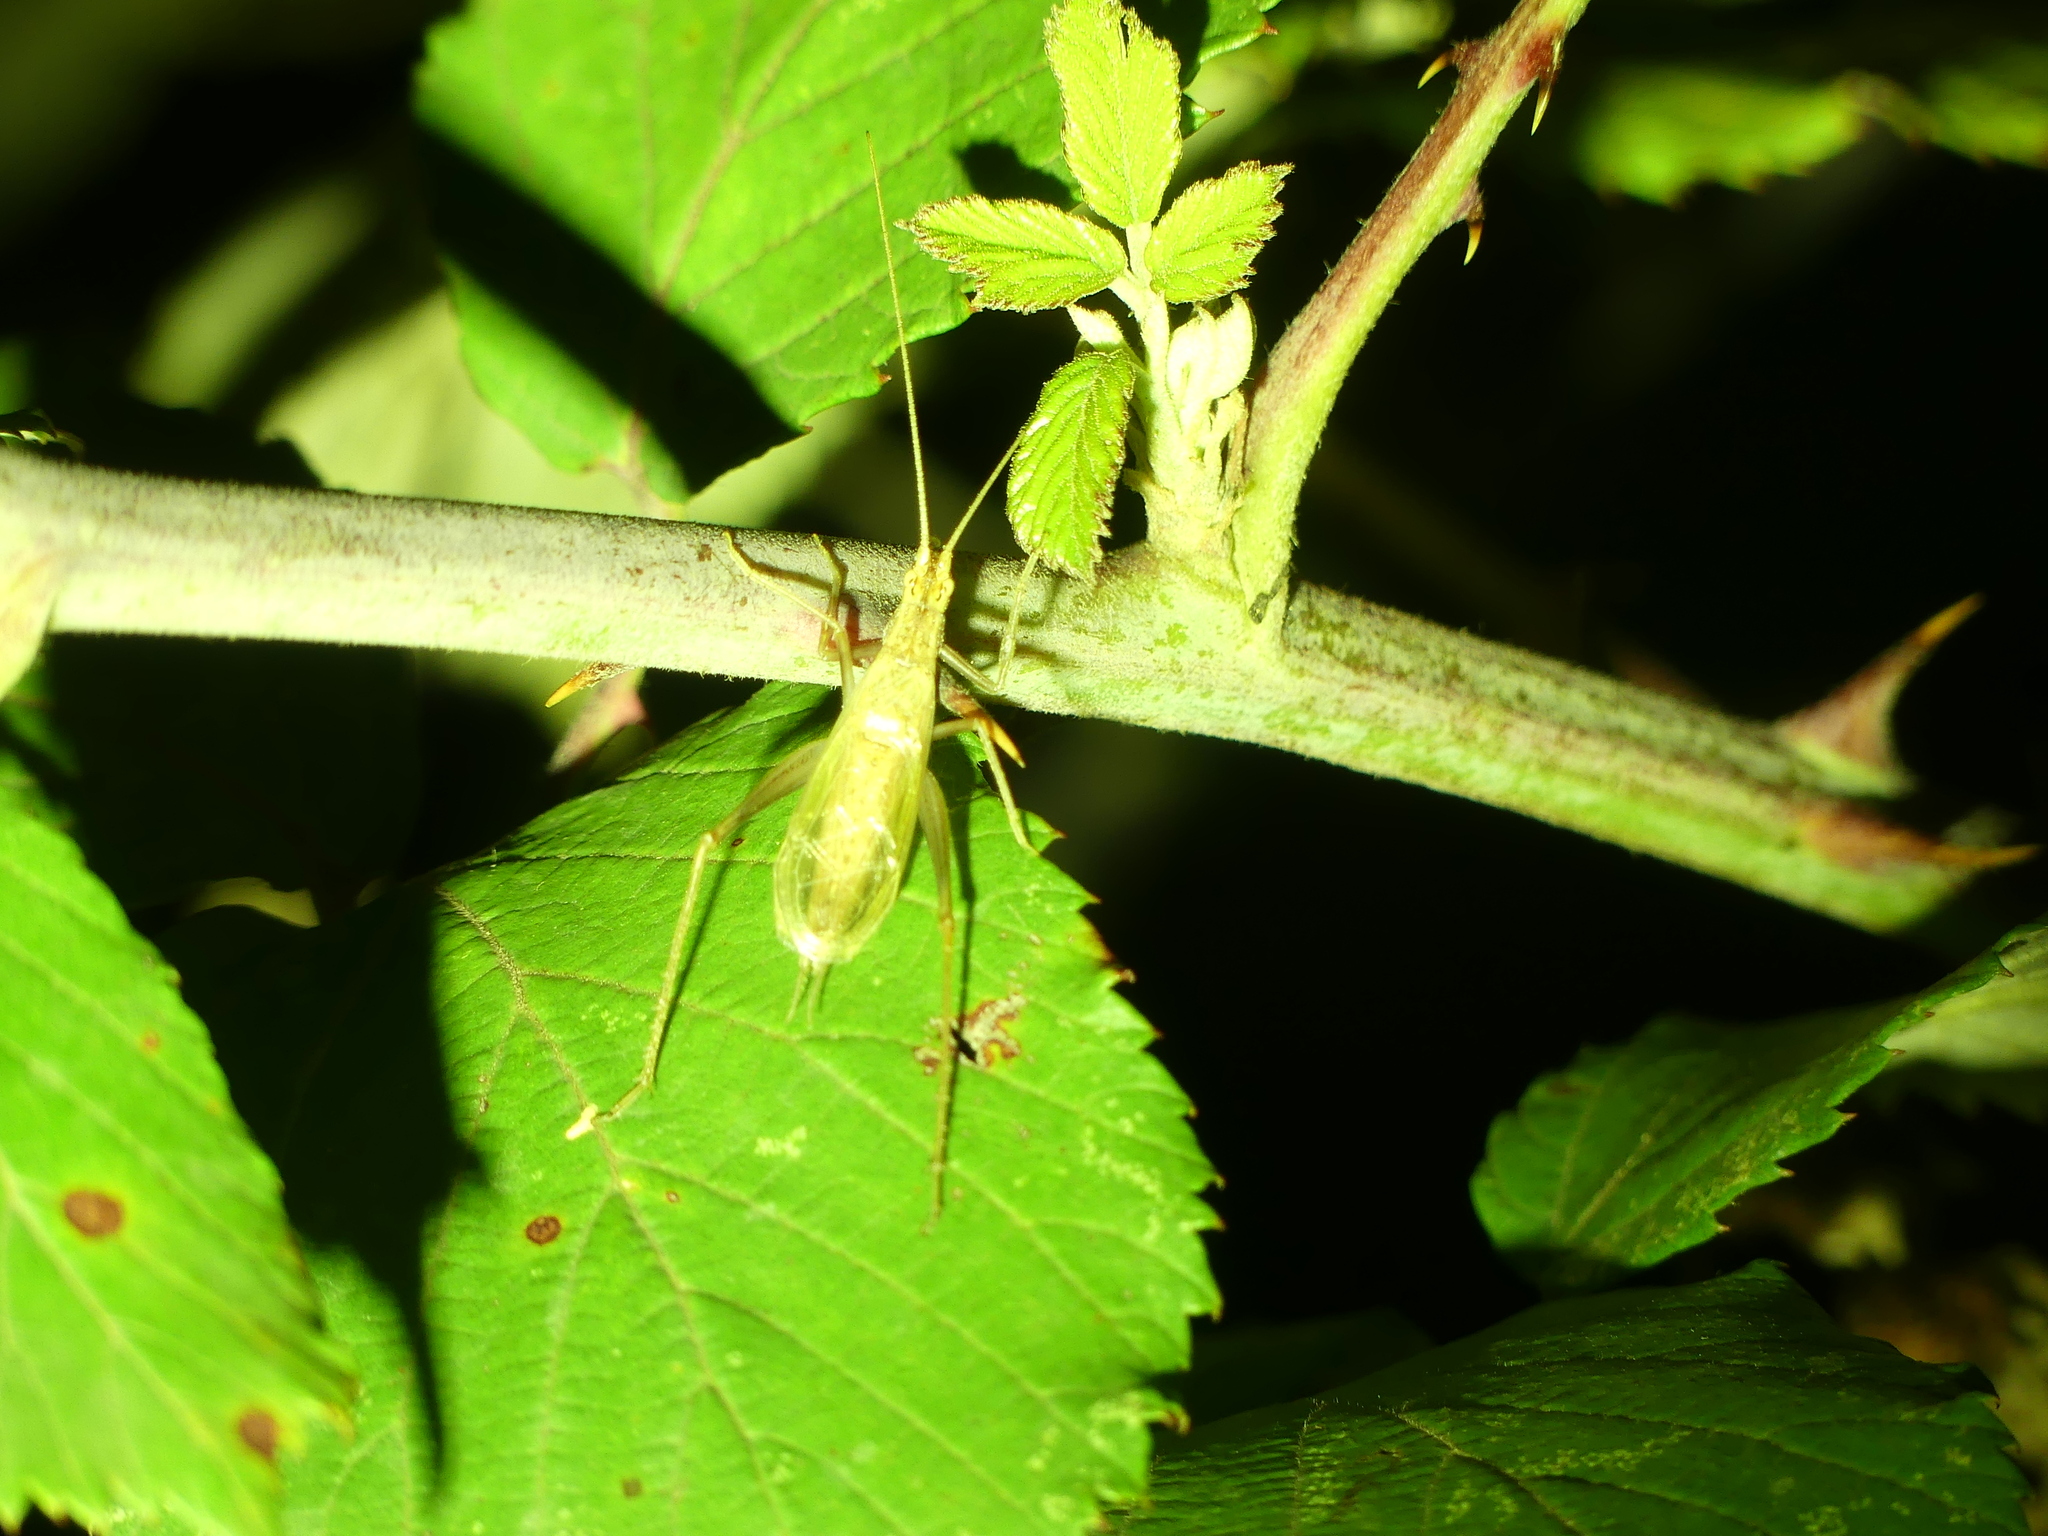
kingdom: Animalia
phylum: Arthropoda
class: Insecta
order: Orthoptera
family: Gryllidae
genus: Oecanthus
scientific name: Oecanthus pellucens
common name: Tree-cricket
